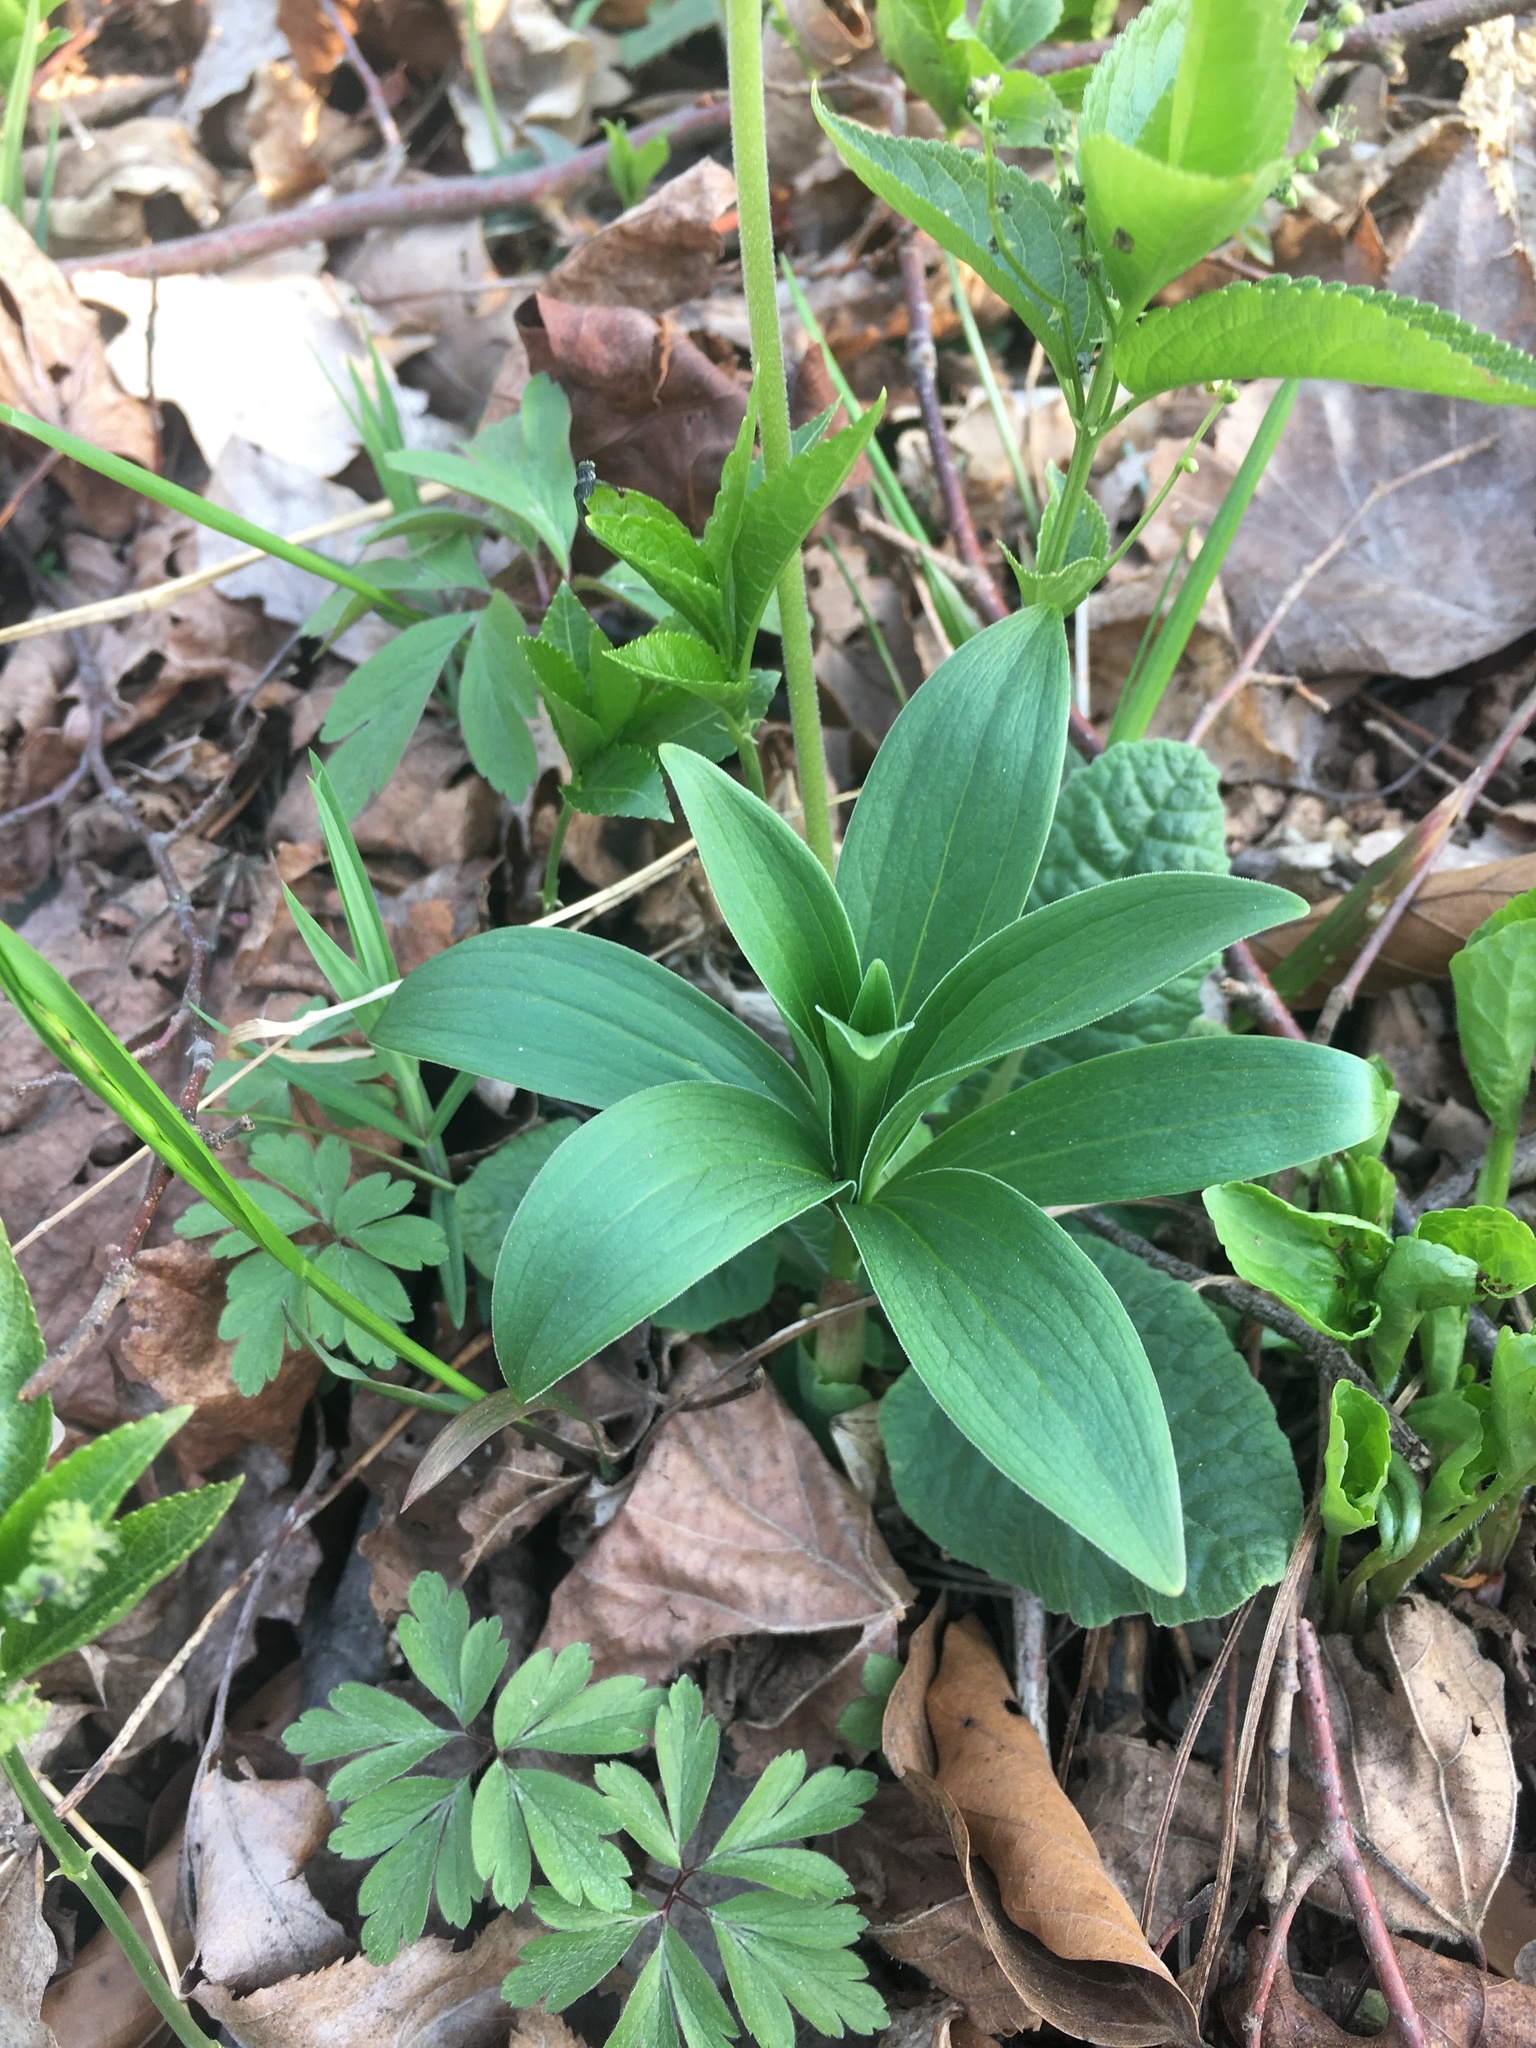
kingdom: Plantae
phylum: Tracheophyta
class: Liliopsida
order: Liliales
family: Liliaceae
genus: Lilium
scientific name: Lilium martagon
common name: Martagon lily
